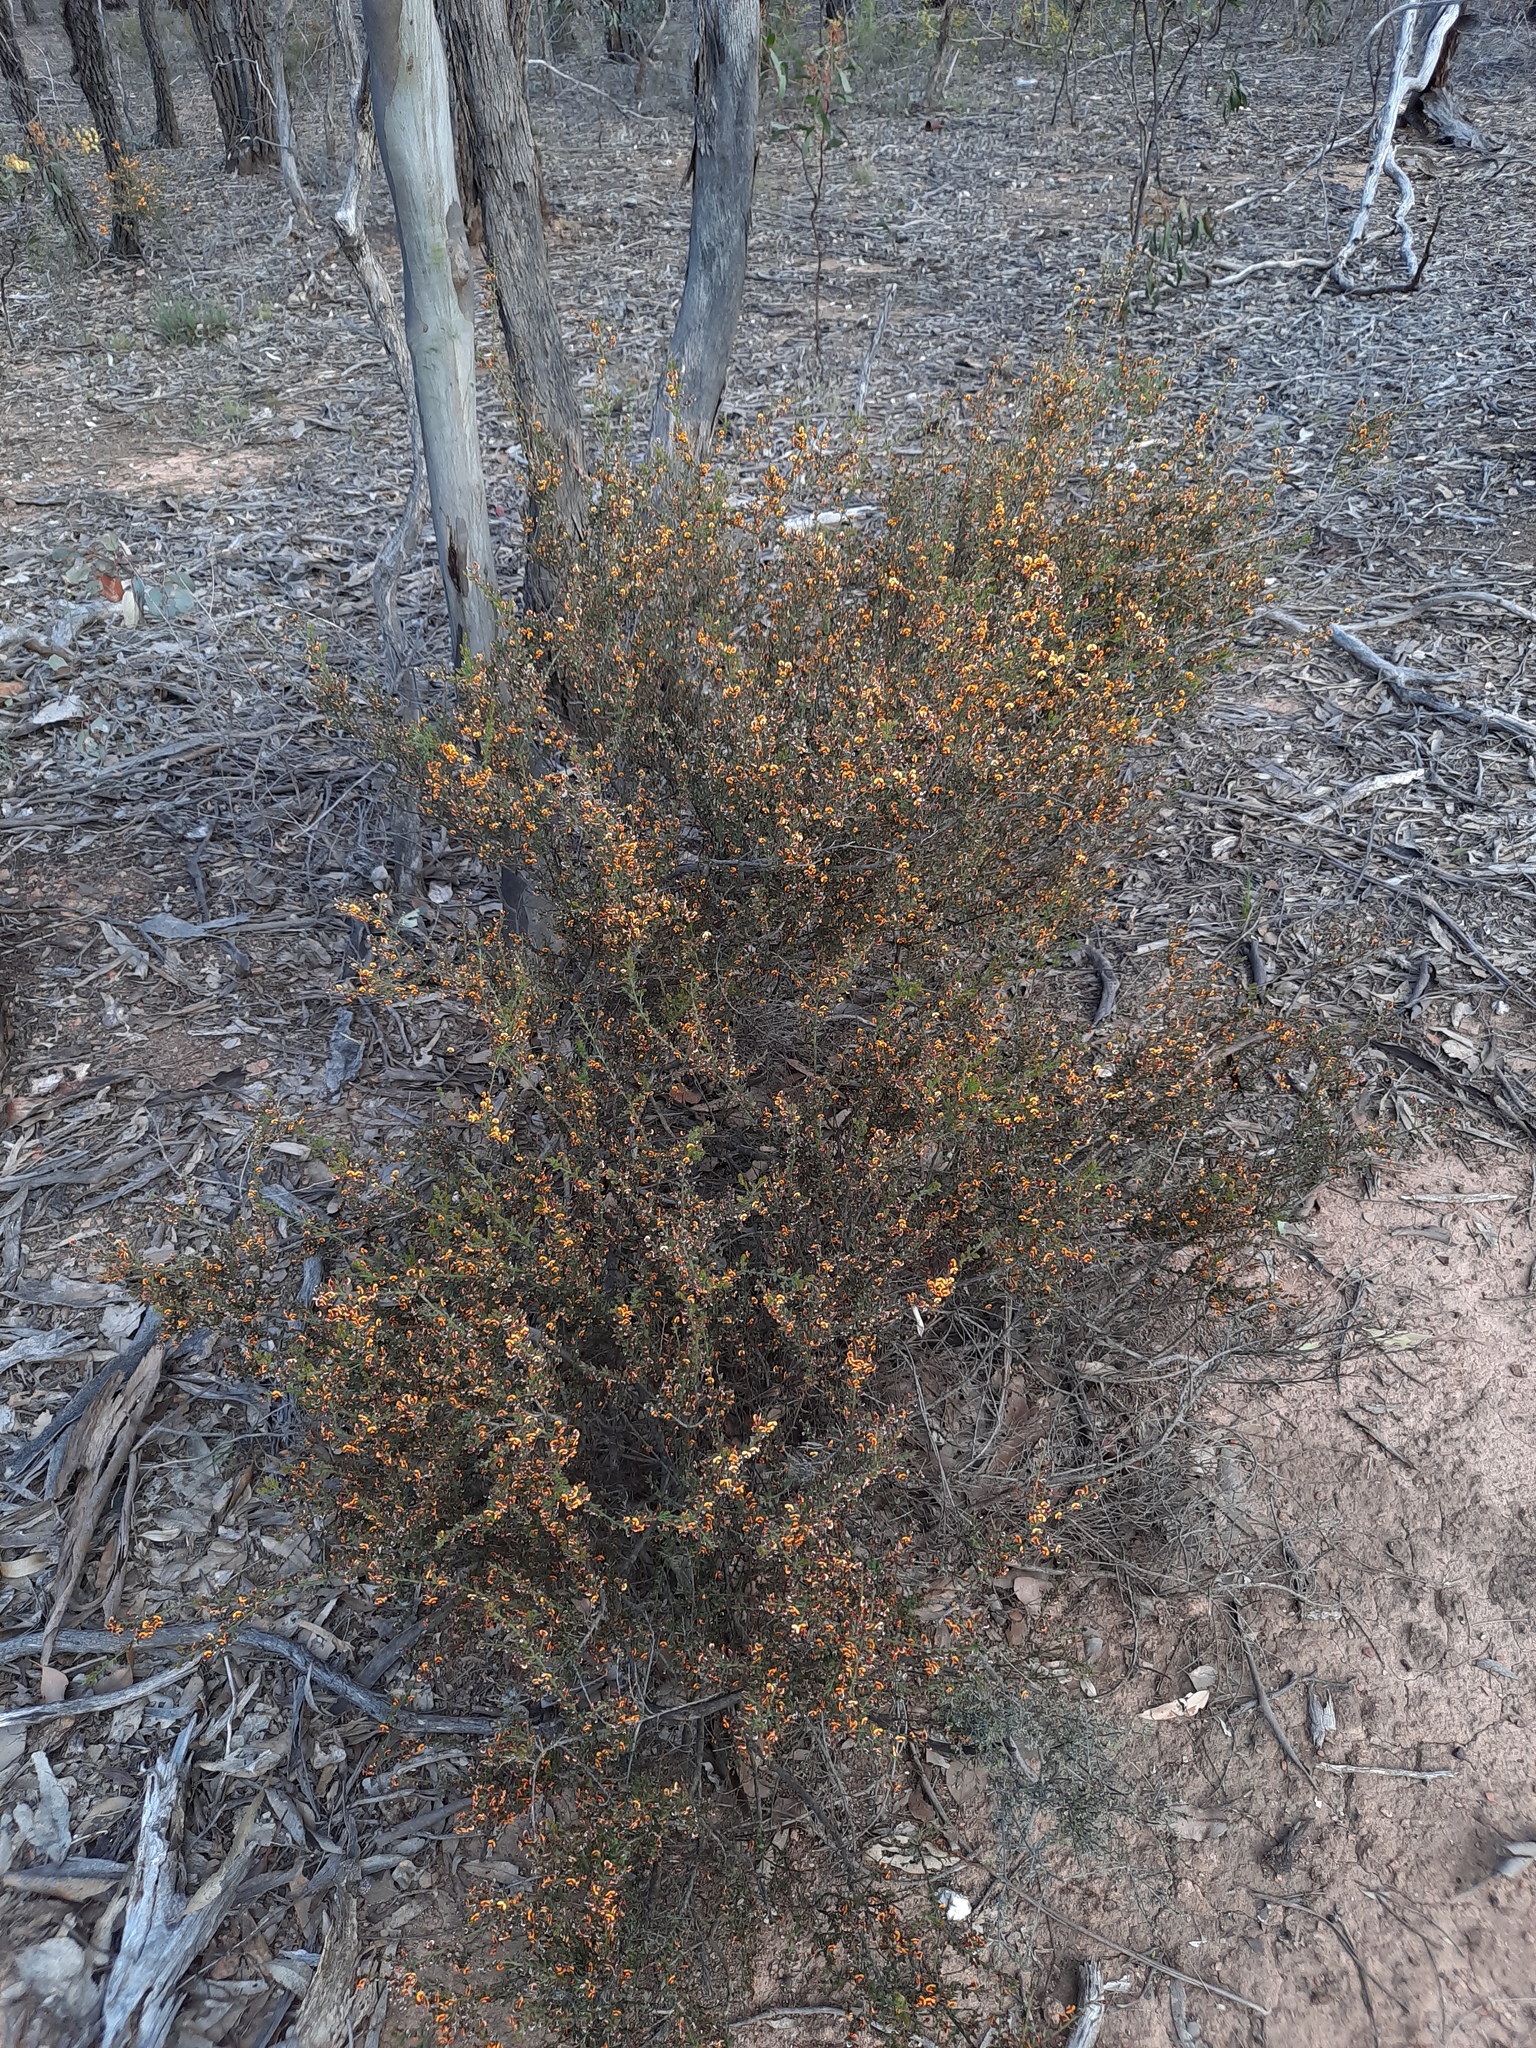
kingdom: Plantae
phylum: Tracheophyta
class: Magnoliopsida
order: Fabales
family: Fabaceae
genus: Daviesia
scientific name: Daviesia ulicifolia
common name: Gorse bitter-pea
